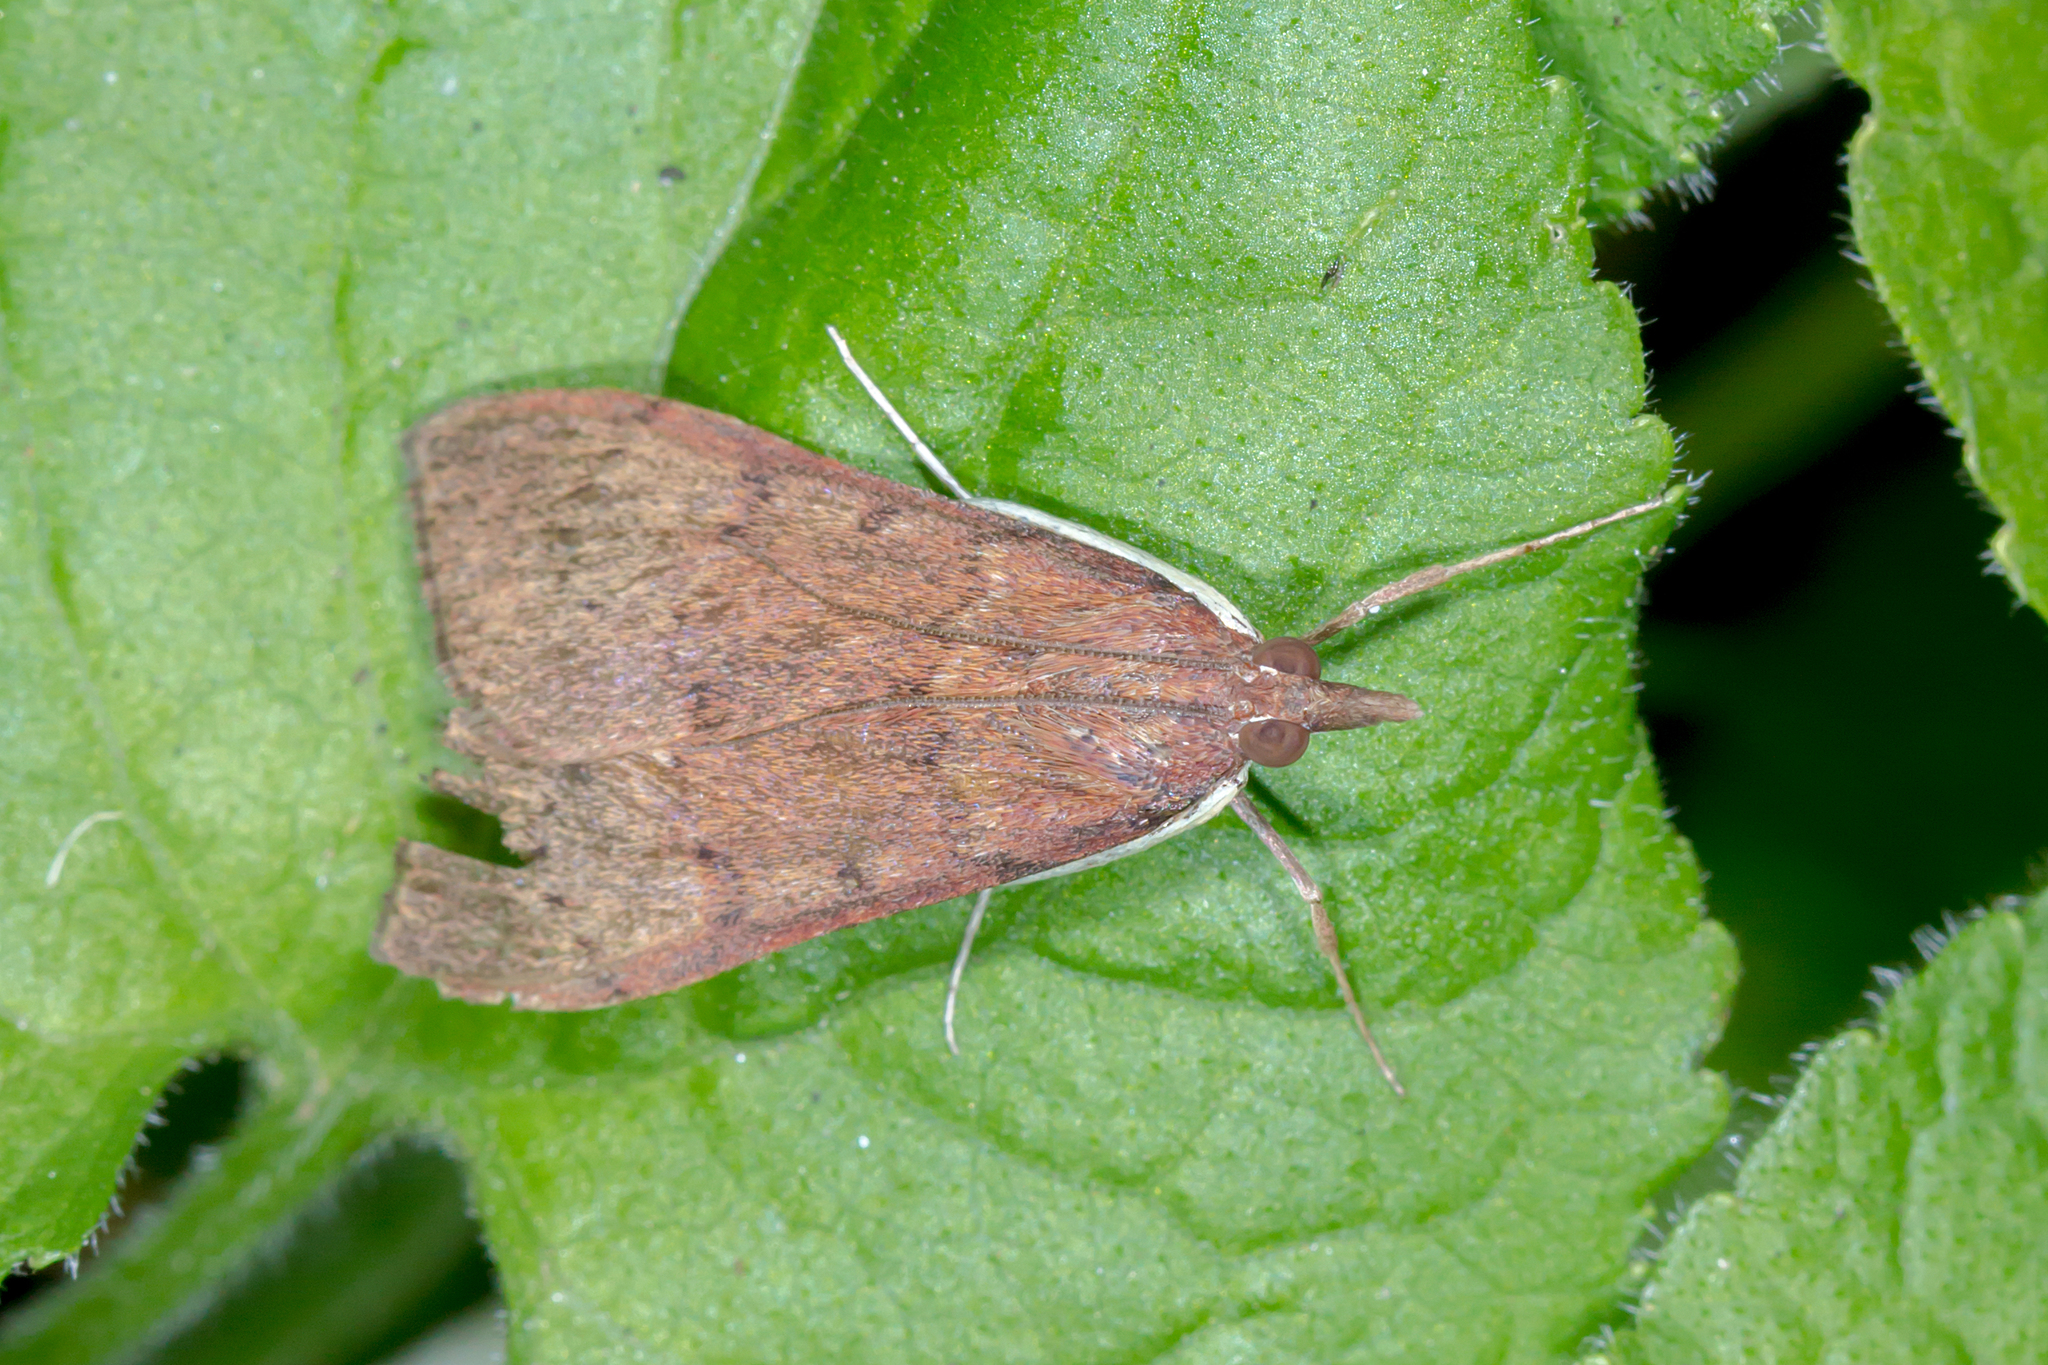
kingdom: Animalia
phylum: Arthropoda
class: Insecta
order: Lepidoptera
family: Crambidae
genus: Uresiphita
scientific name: Uresiphita ornithopteralis
